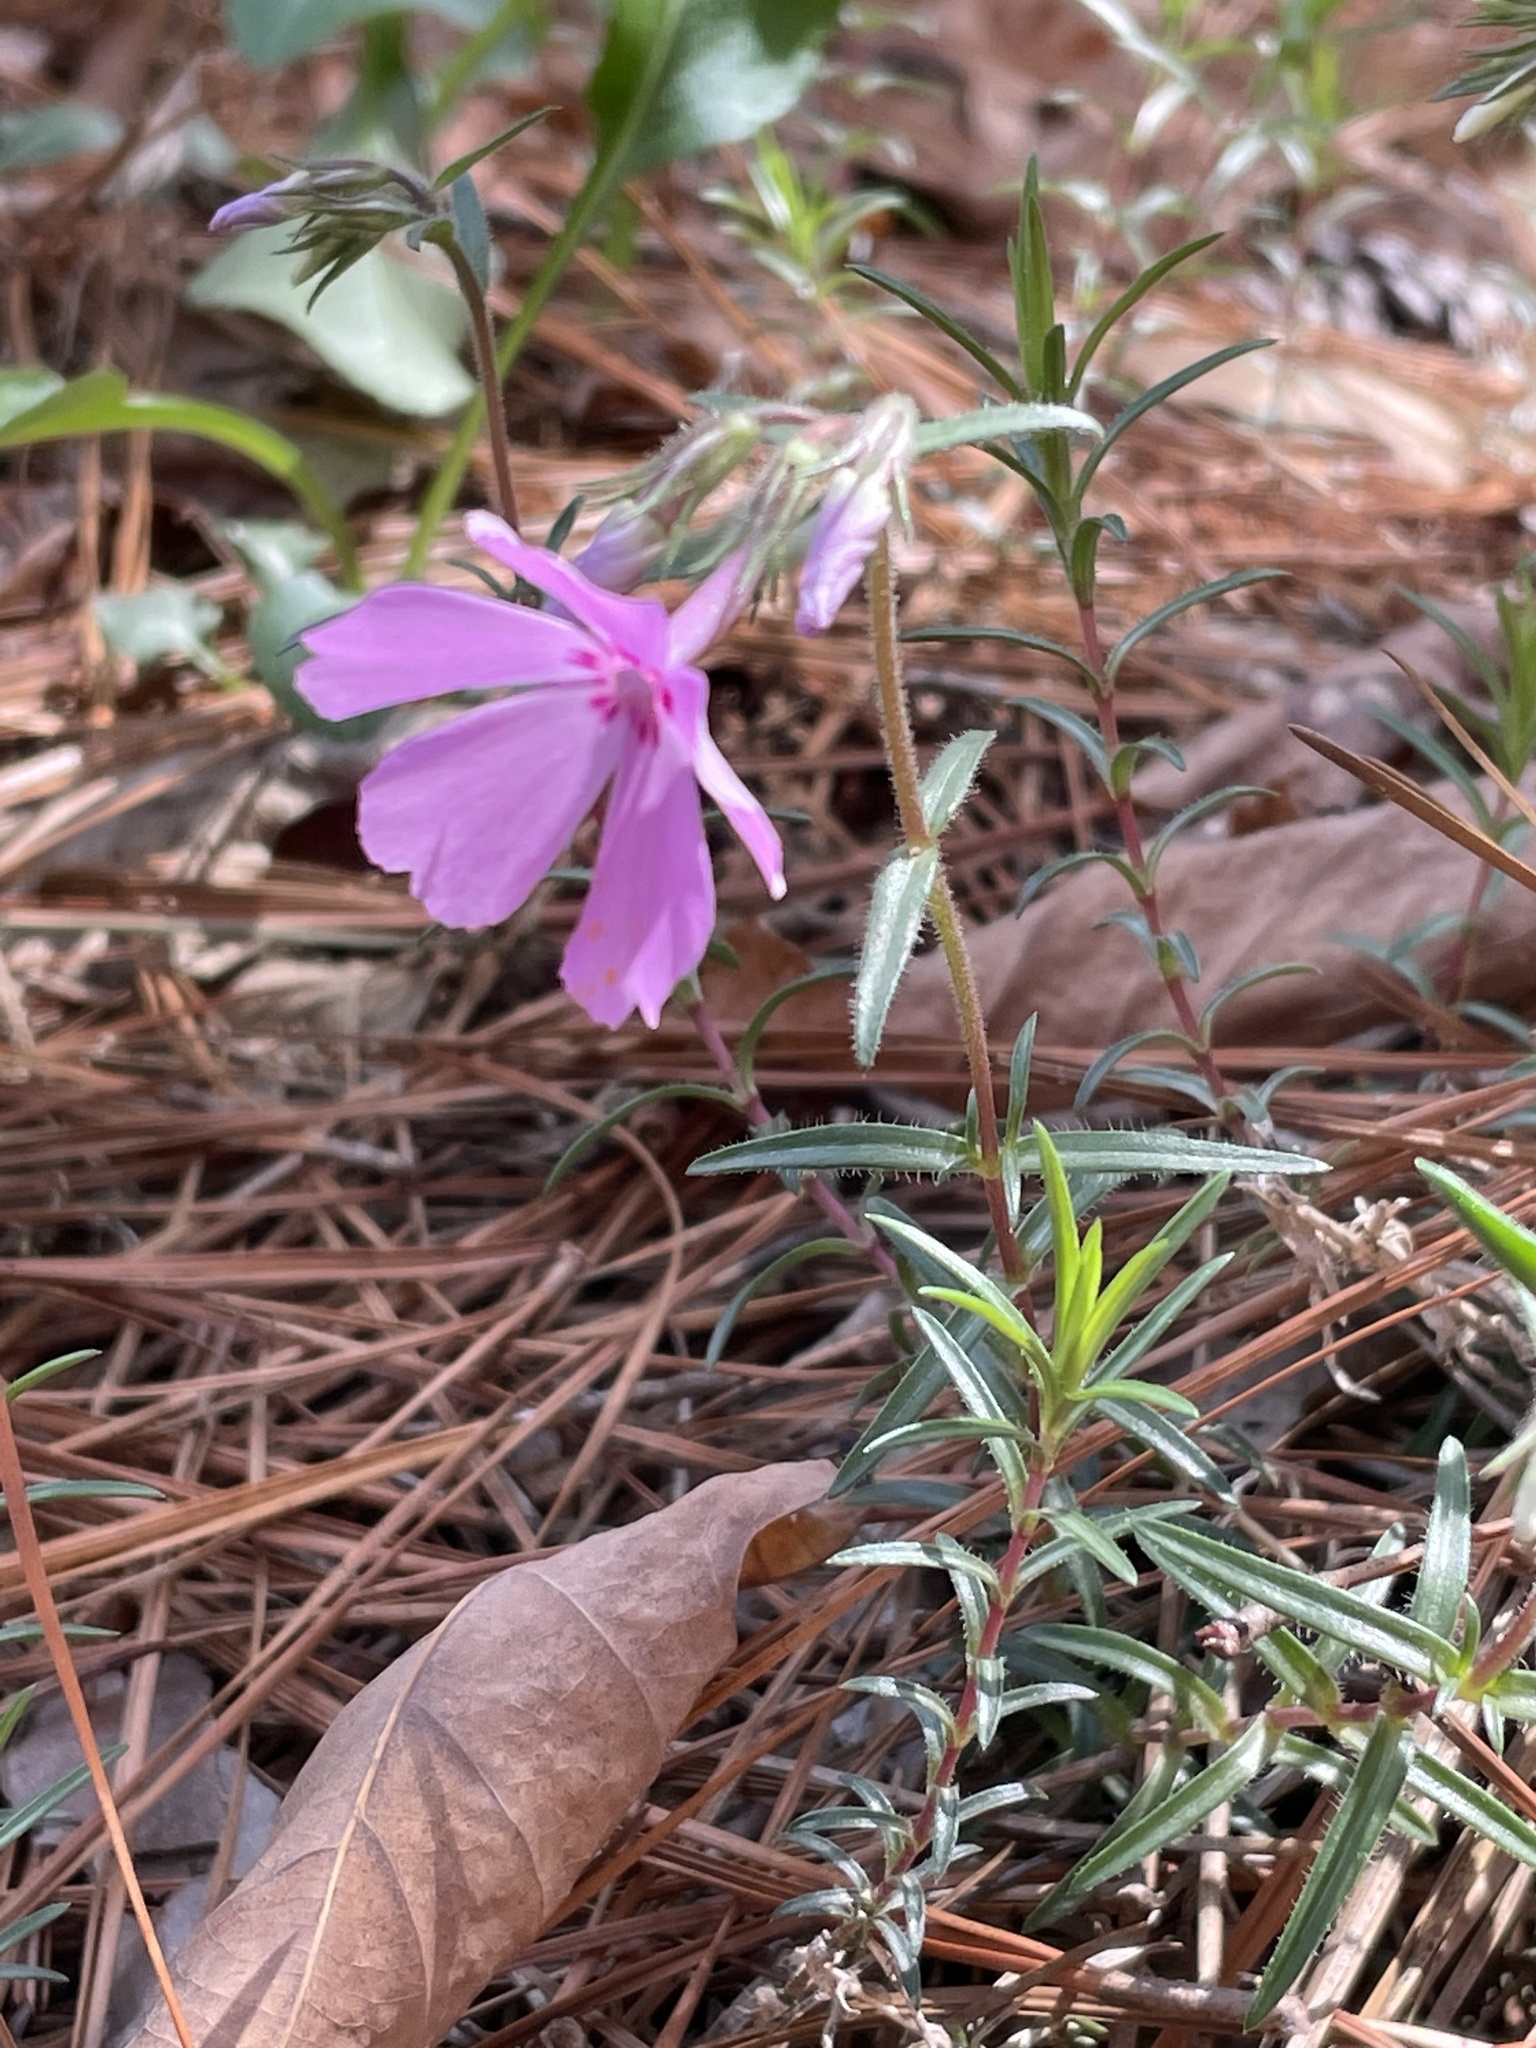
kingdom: Plantae
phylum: Tracheophyta
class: Magnoliopsida
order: Ericales
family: Polemoniaceae
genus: Phlox
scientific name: Phlox nivalis
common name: Trailing phlox
